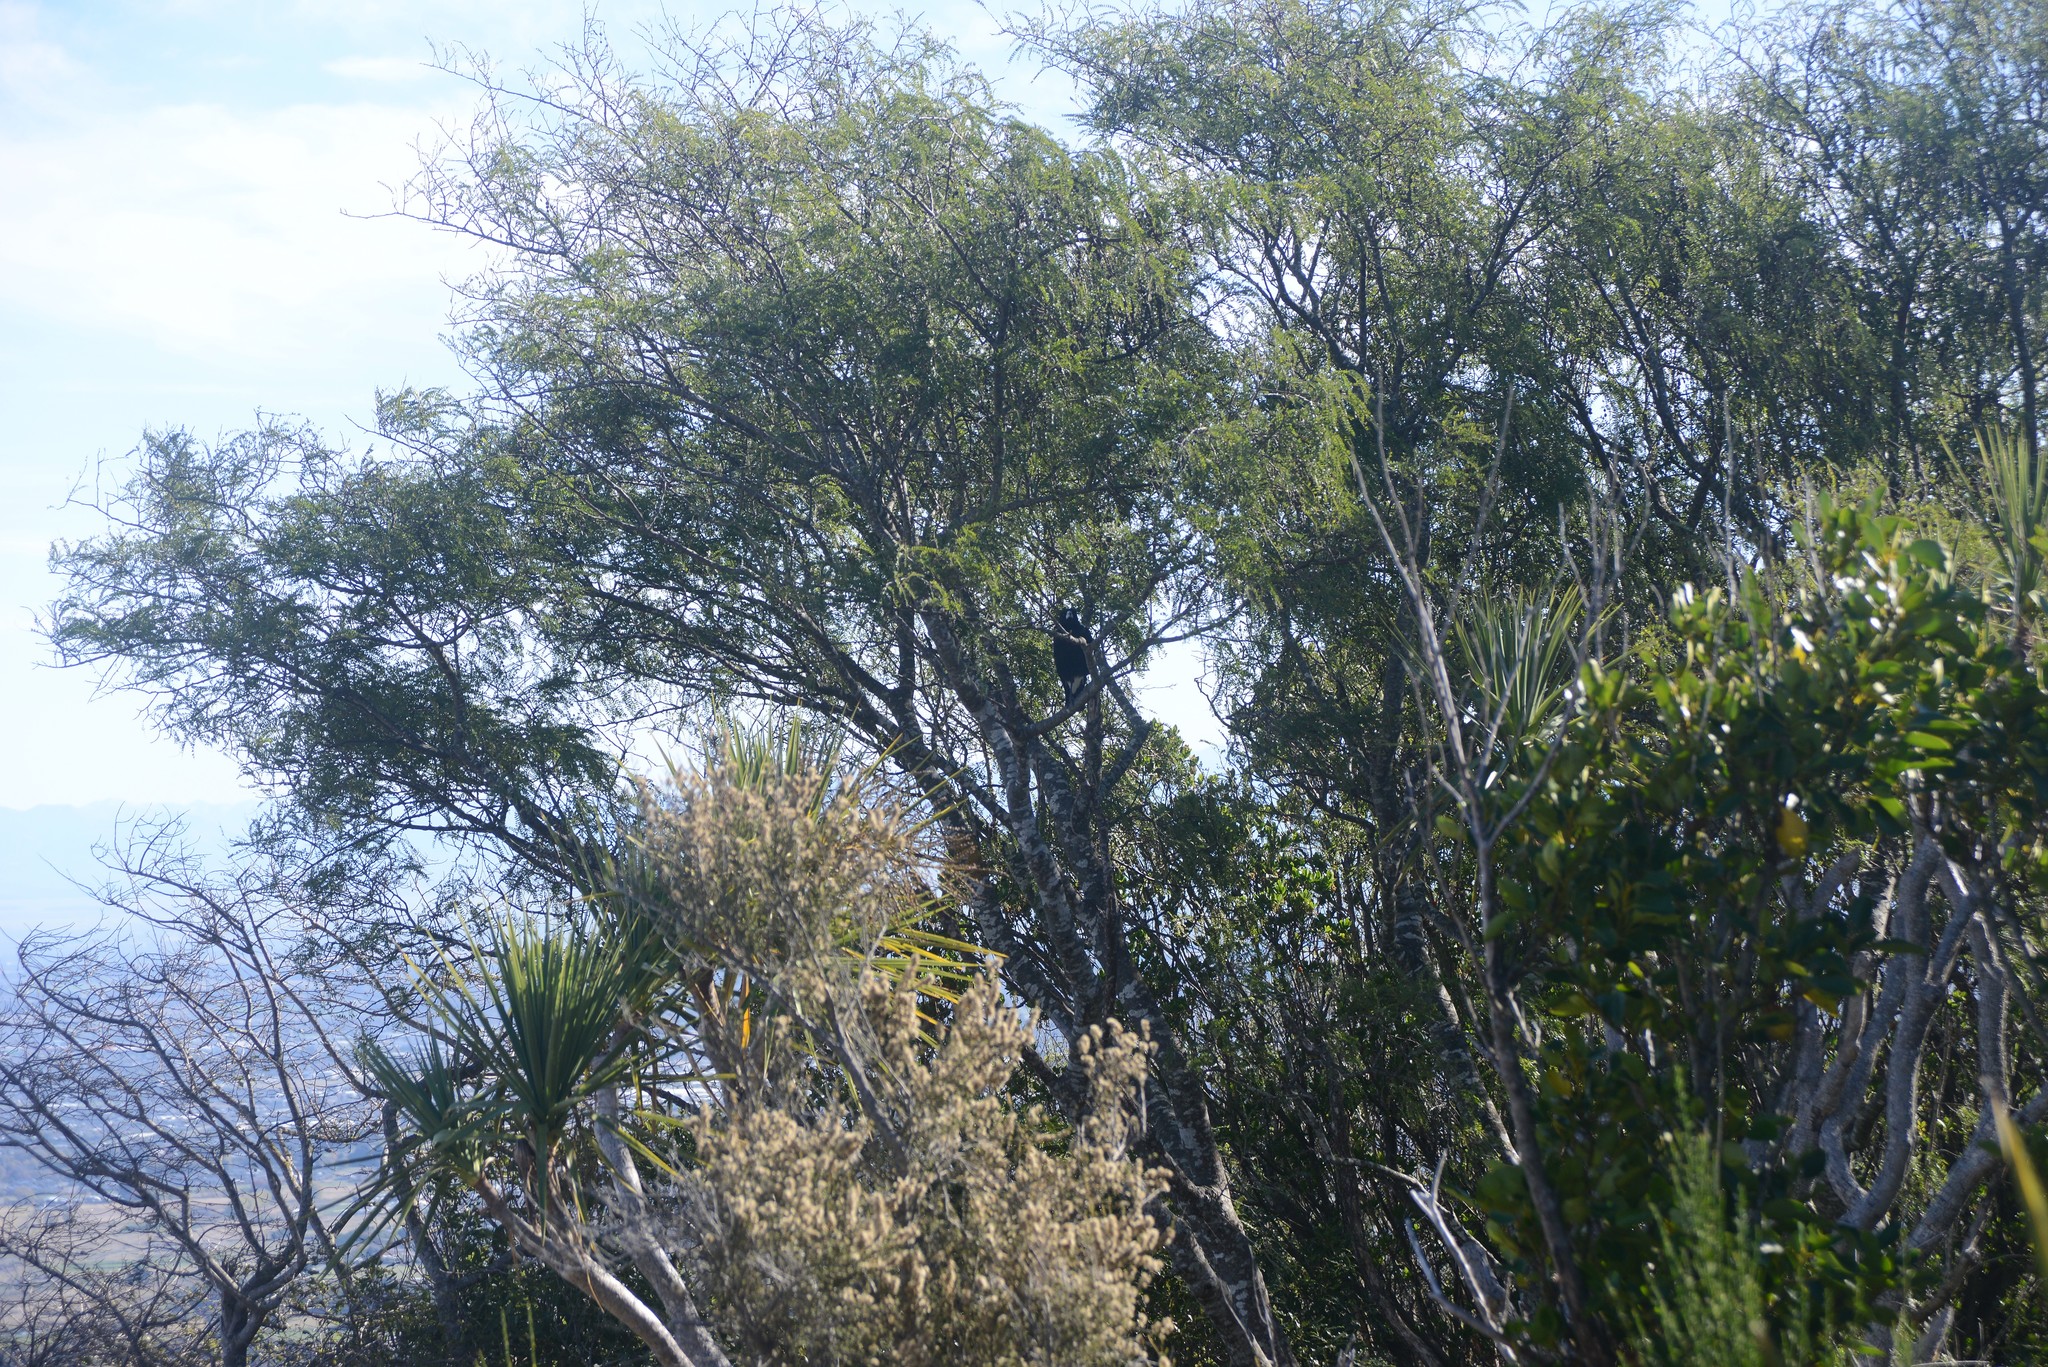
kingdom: Animalia
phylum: Chordata
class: Aves
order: Passeriformes
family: Cracticidae
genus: Gymnorhina
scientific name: Gymnorhina tibicen
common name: Australian magpie
